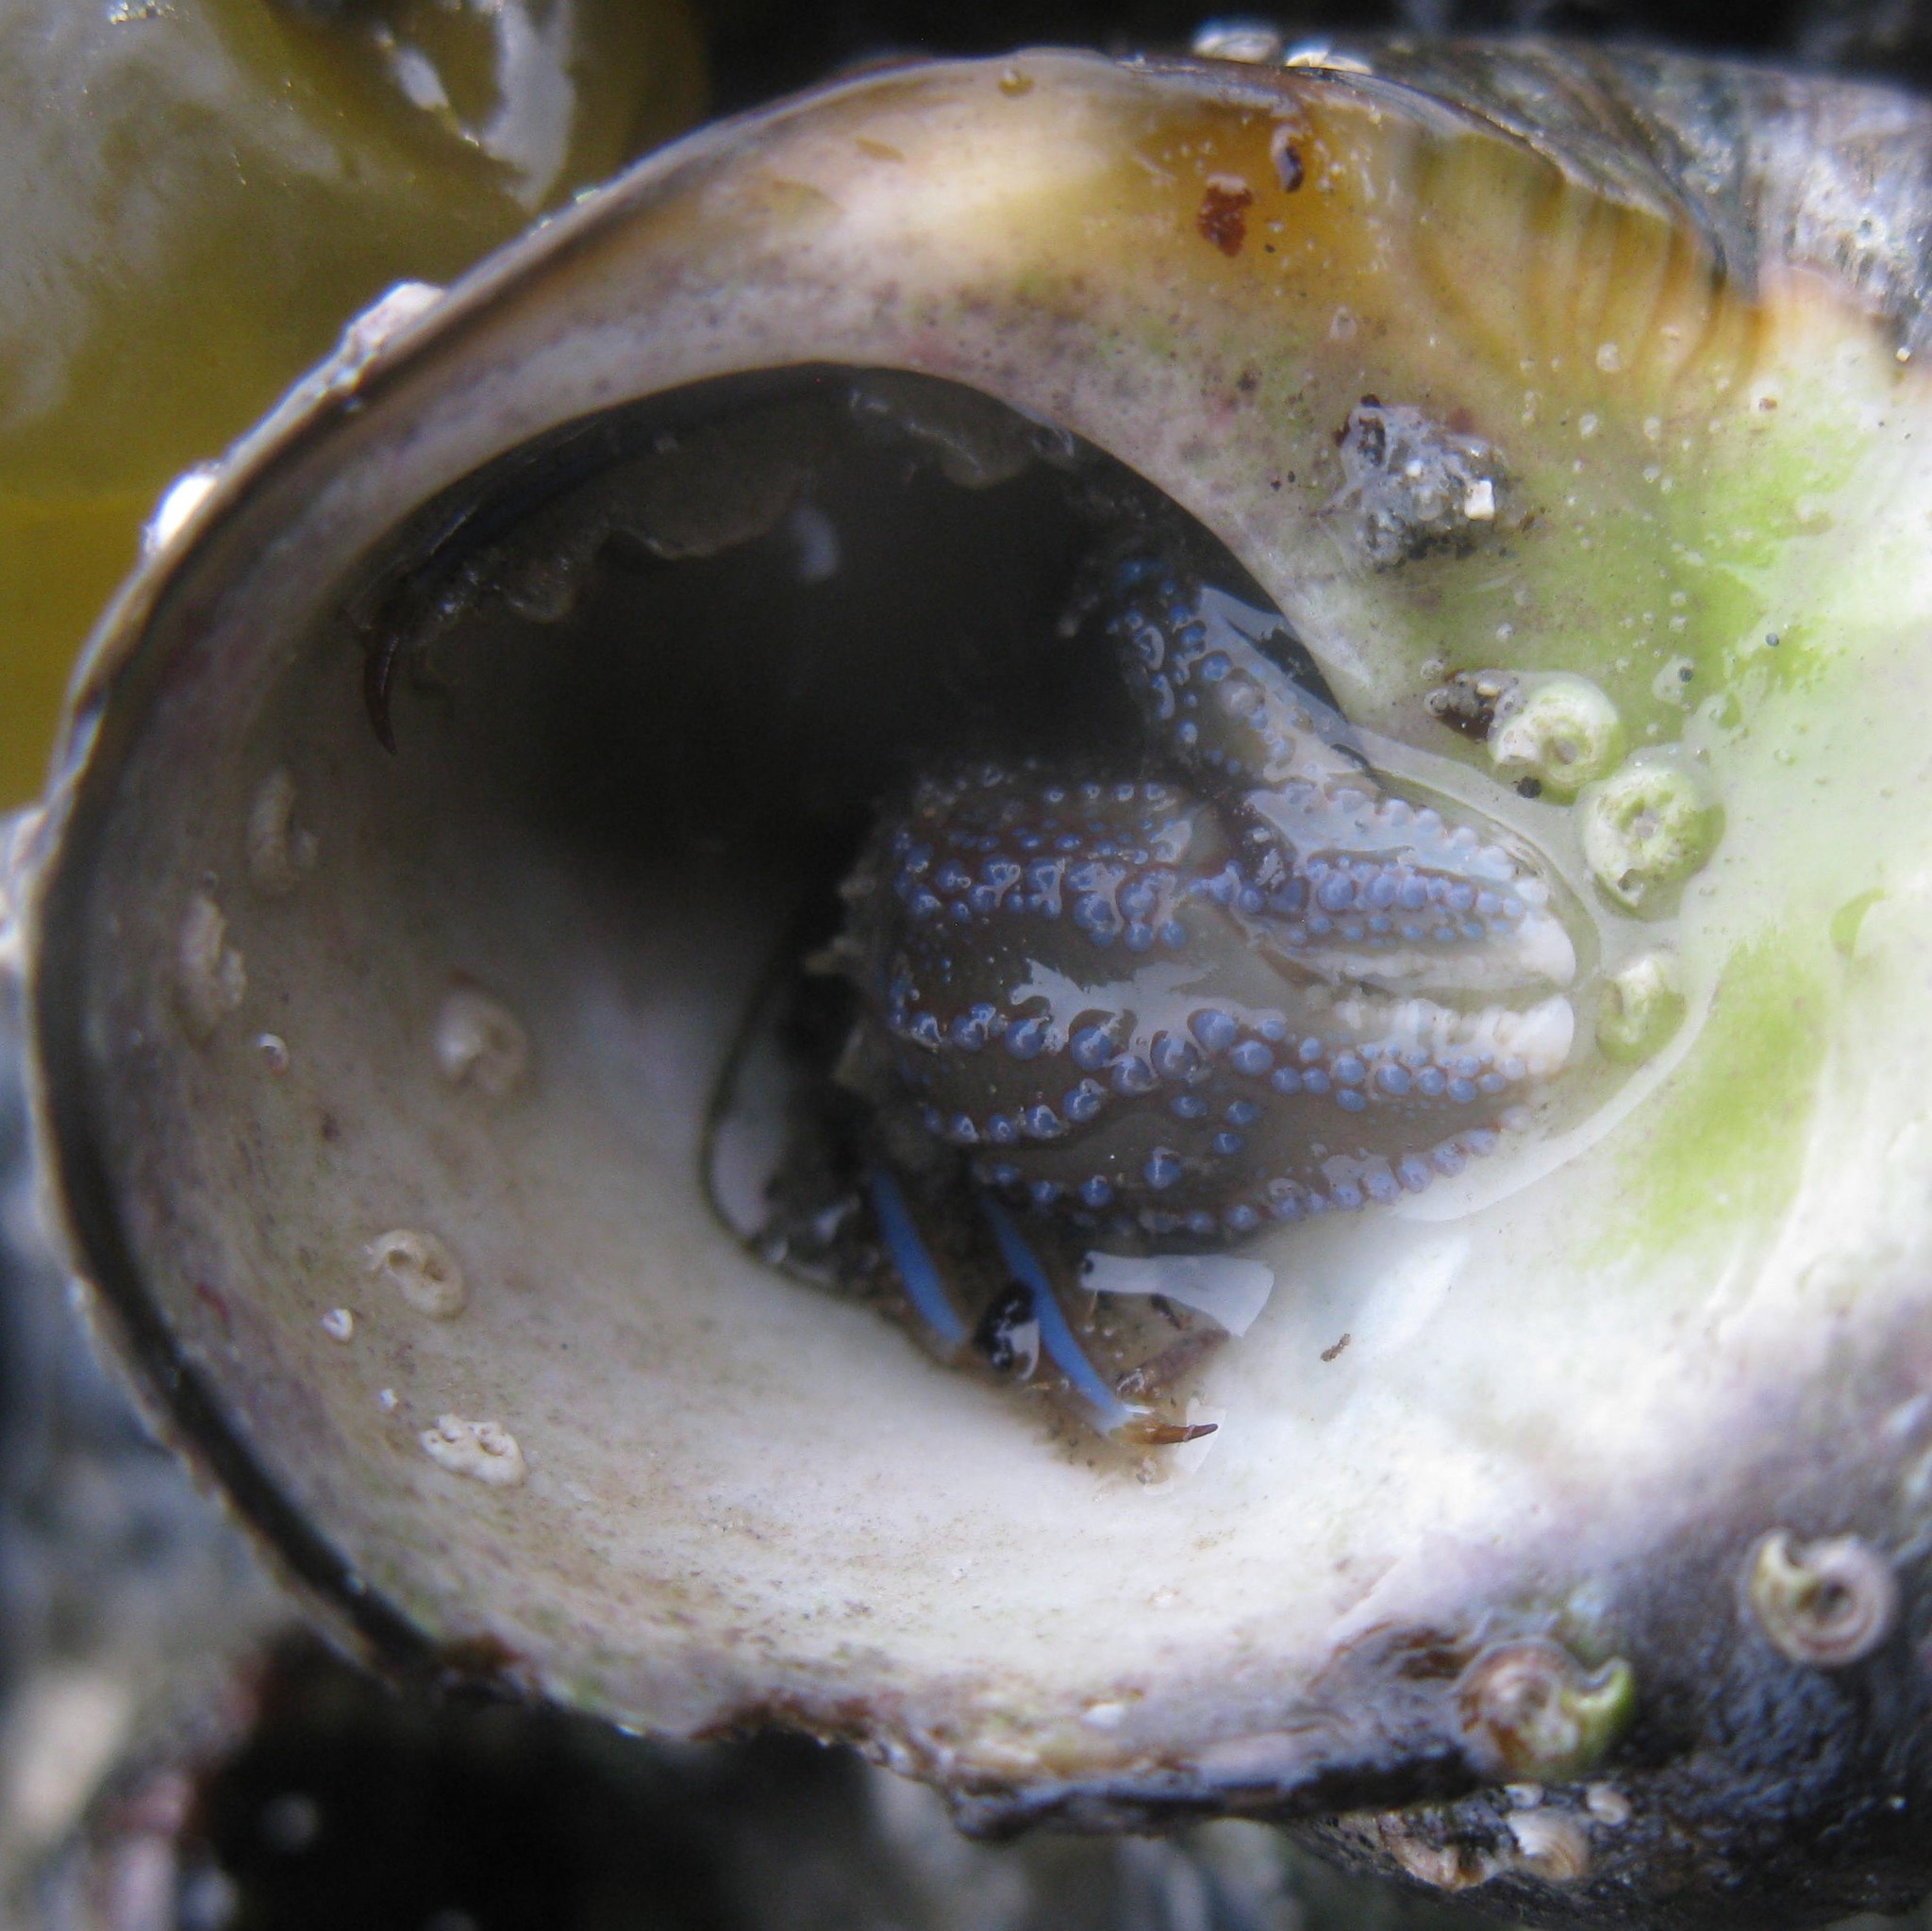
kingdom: Animalia
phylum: Arthropoda
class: Malacostraca
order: Decapoda
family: Paguridae
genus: Pagurus
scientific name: Pagurus novizealandiae
